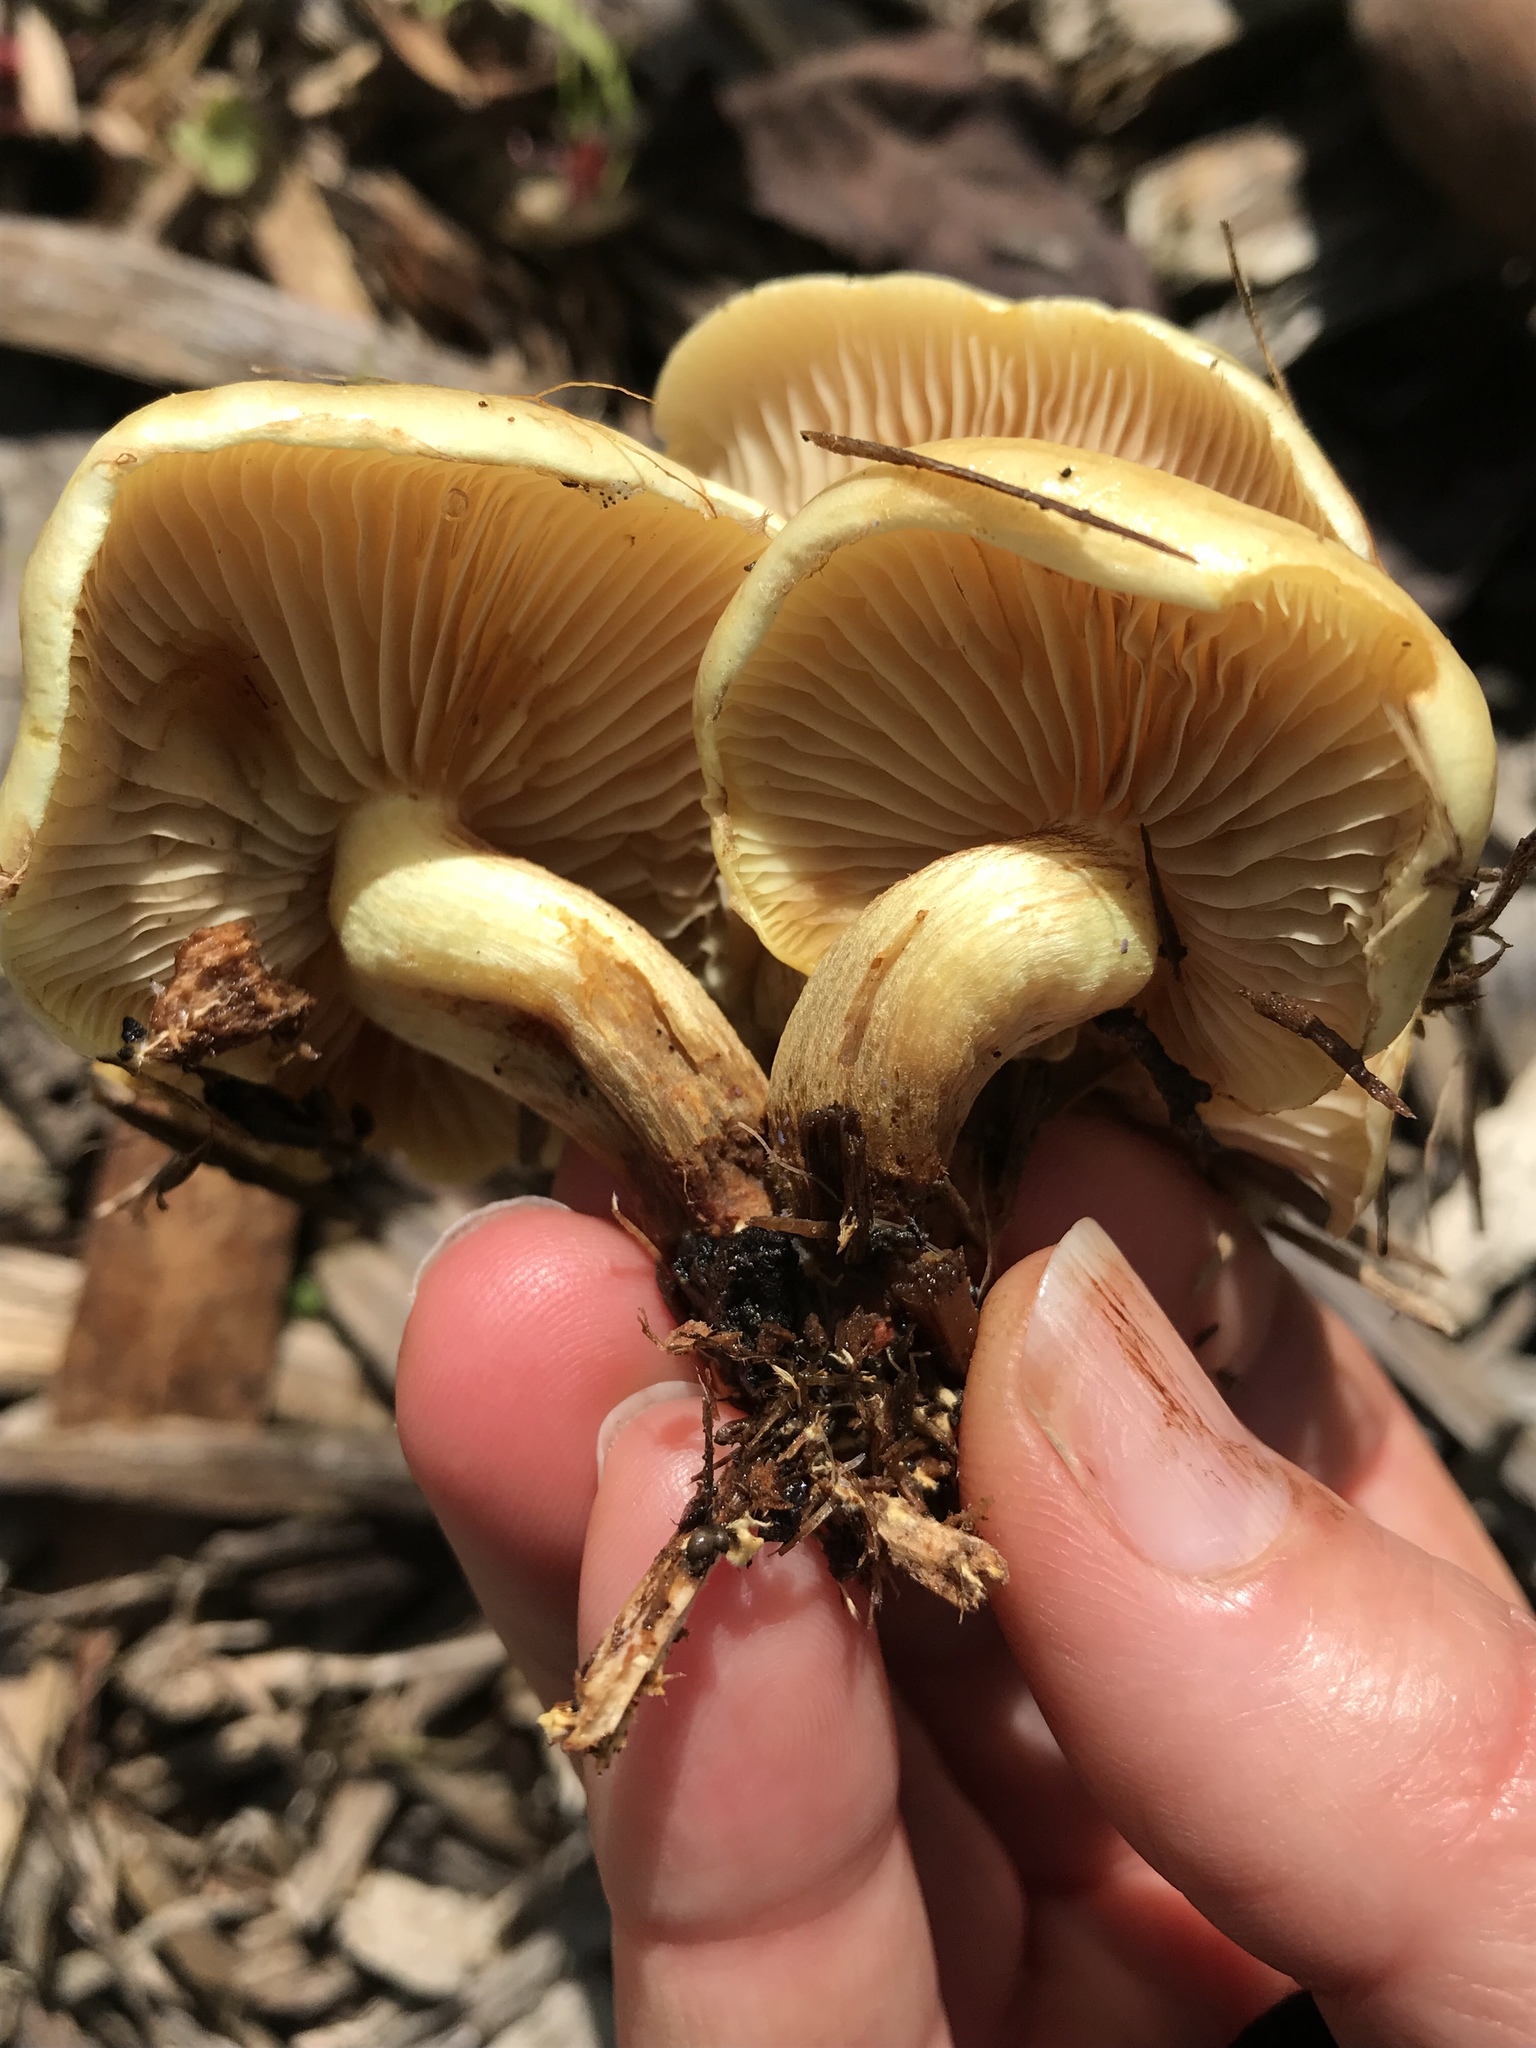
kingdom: Fungi
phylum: Basidiomycota
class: Agaricomycetes
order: Agaricales
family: Strophariaceae
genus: Hypholoma
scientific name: Hypholoma fasciculare
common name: Sulphur tuft
